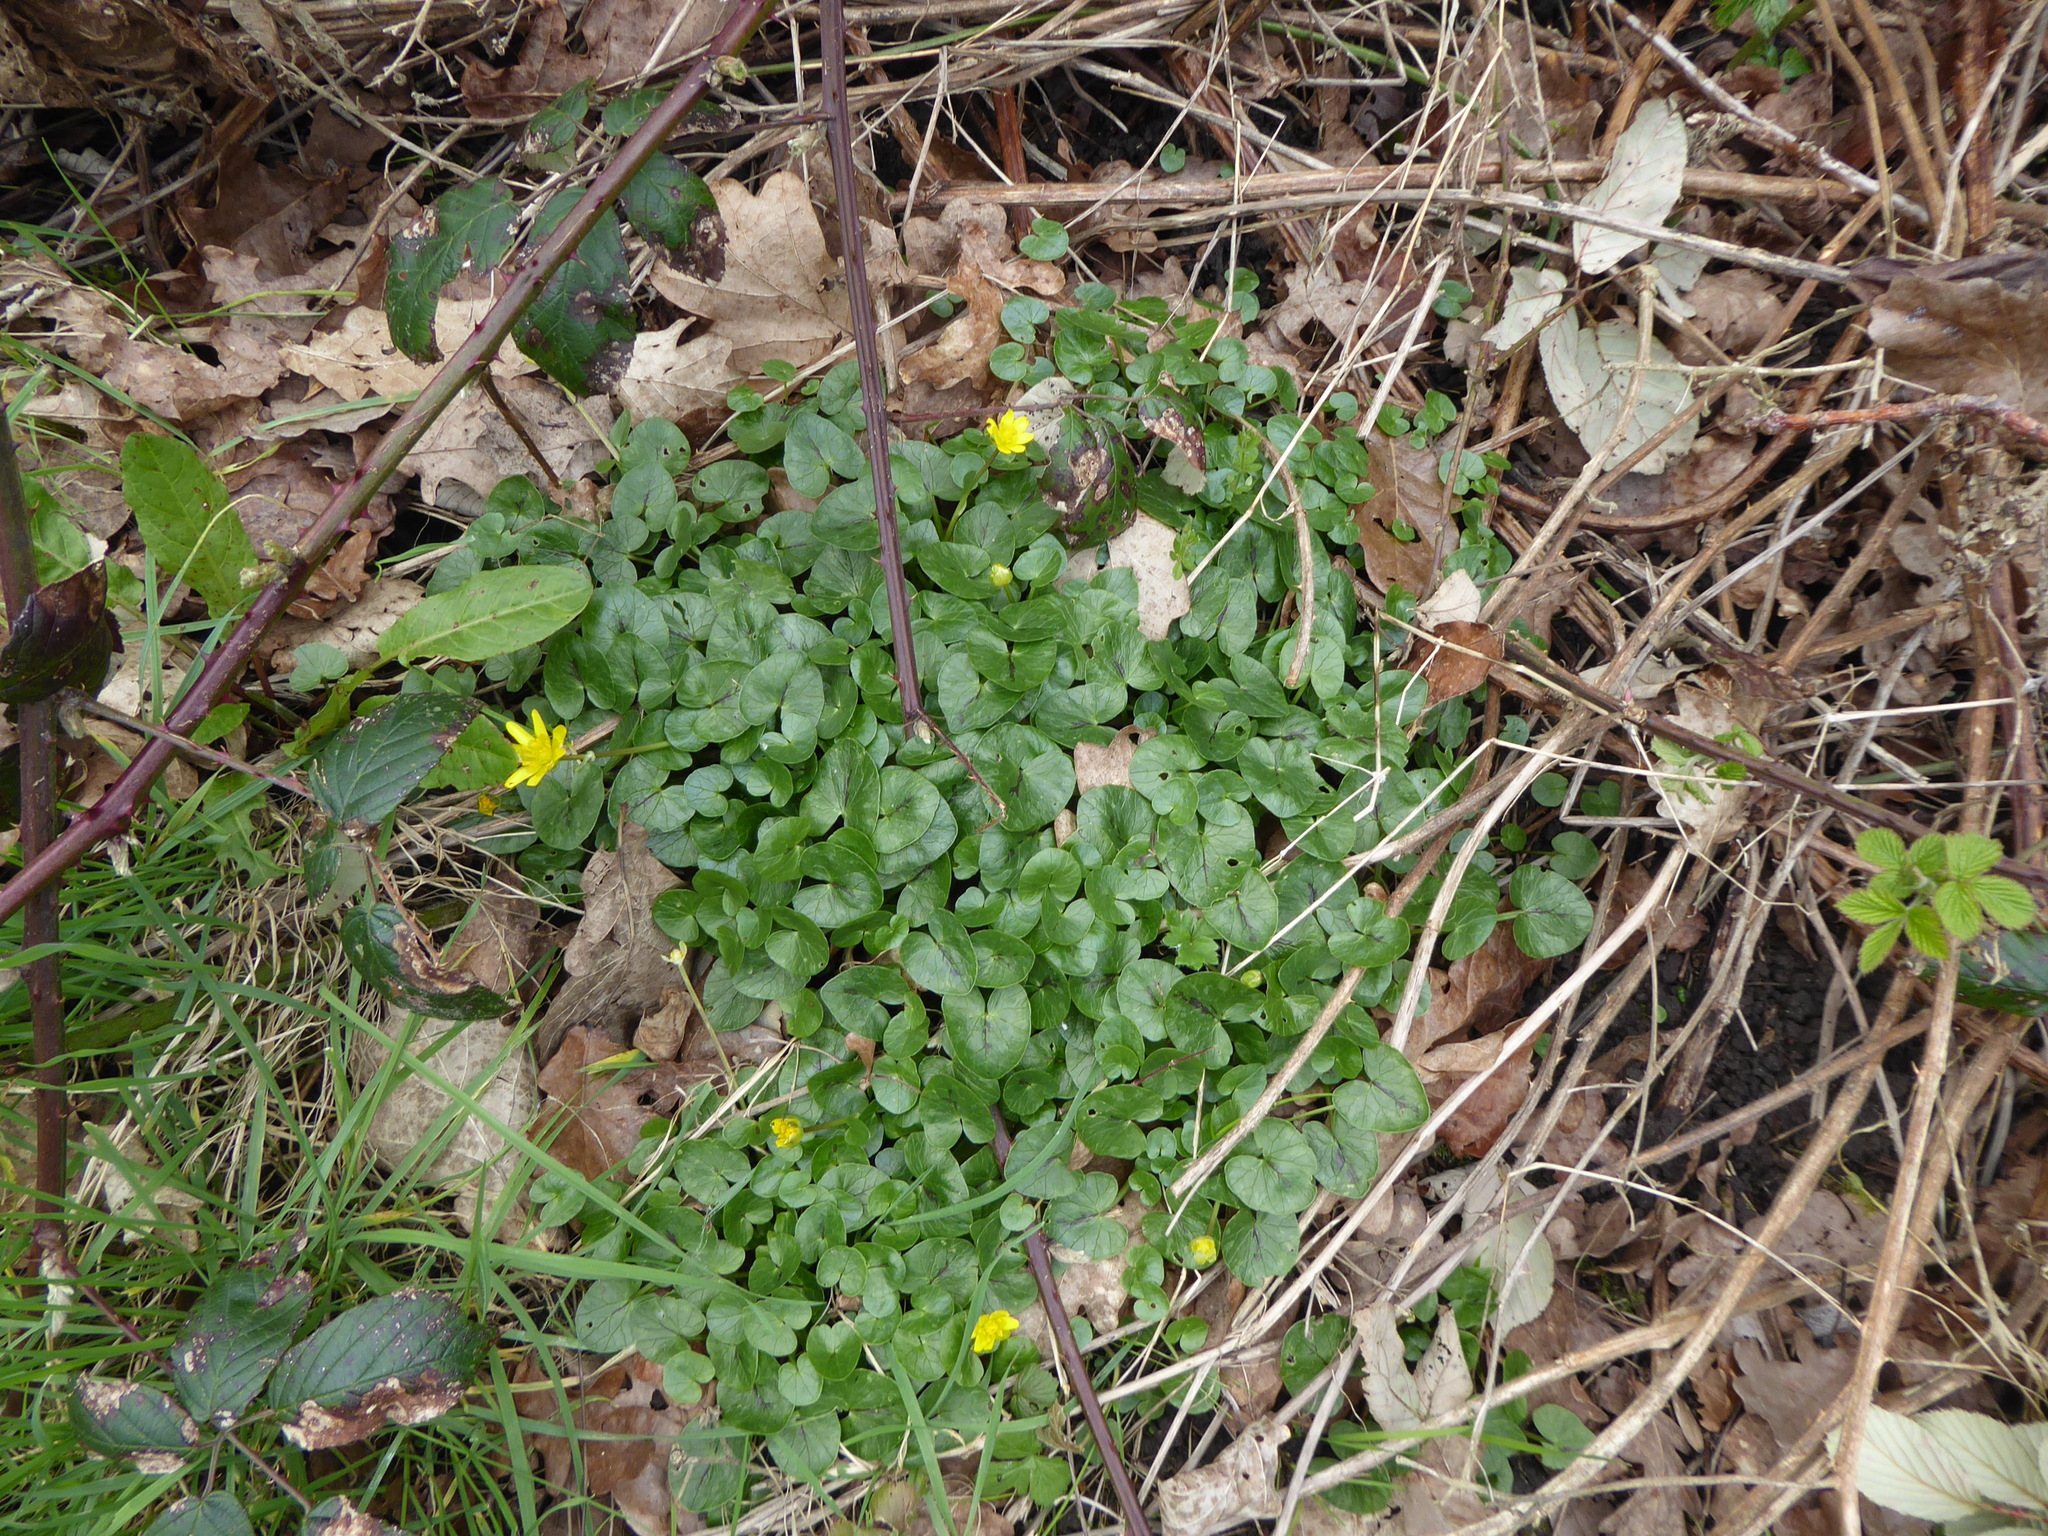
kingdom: Plantae
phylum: Tracheophyta
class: Magnoliopsida
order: Ranunculales
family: Ranunculaceae
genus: Ficaria
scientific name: Ficaria verna
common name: Lesser celandine
